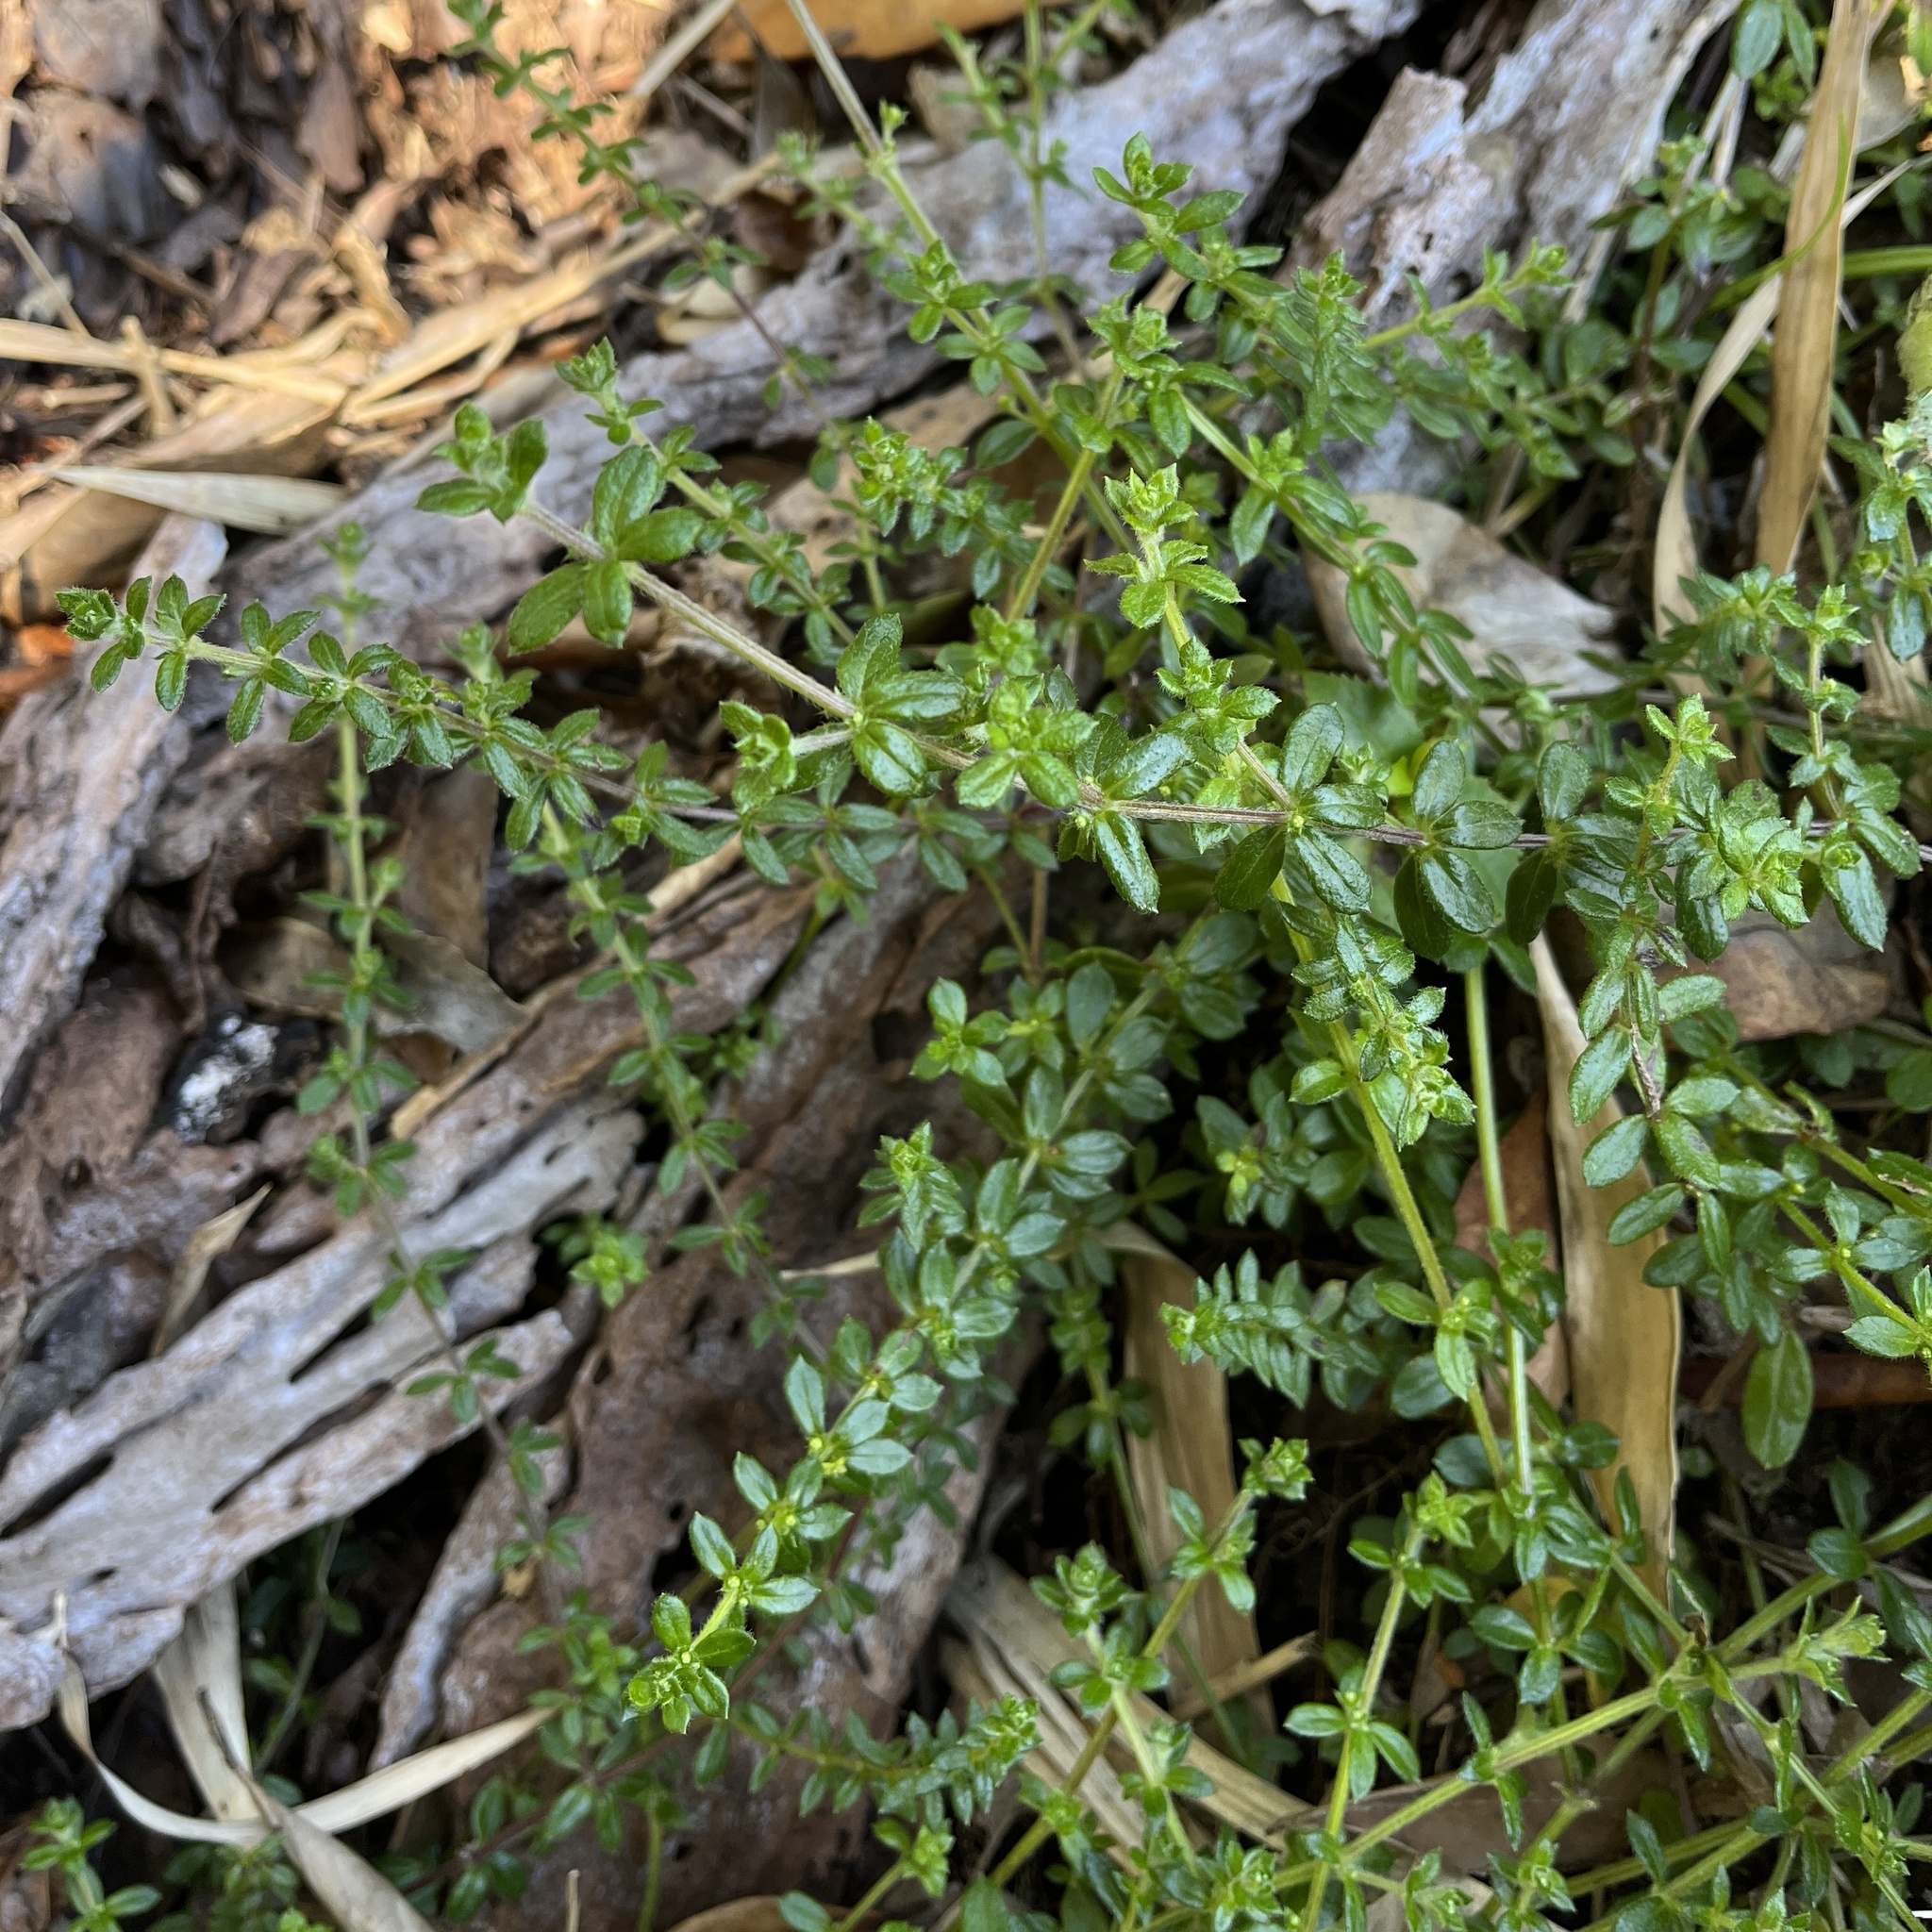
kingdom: Plantae
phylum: Tracheophyta
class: Magnoliopsida
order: Gentianales
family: Rubiaceae
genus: Galium
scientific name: Galium hypocarpium
